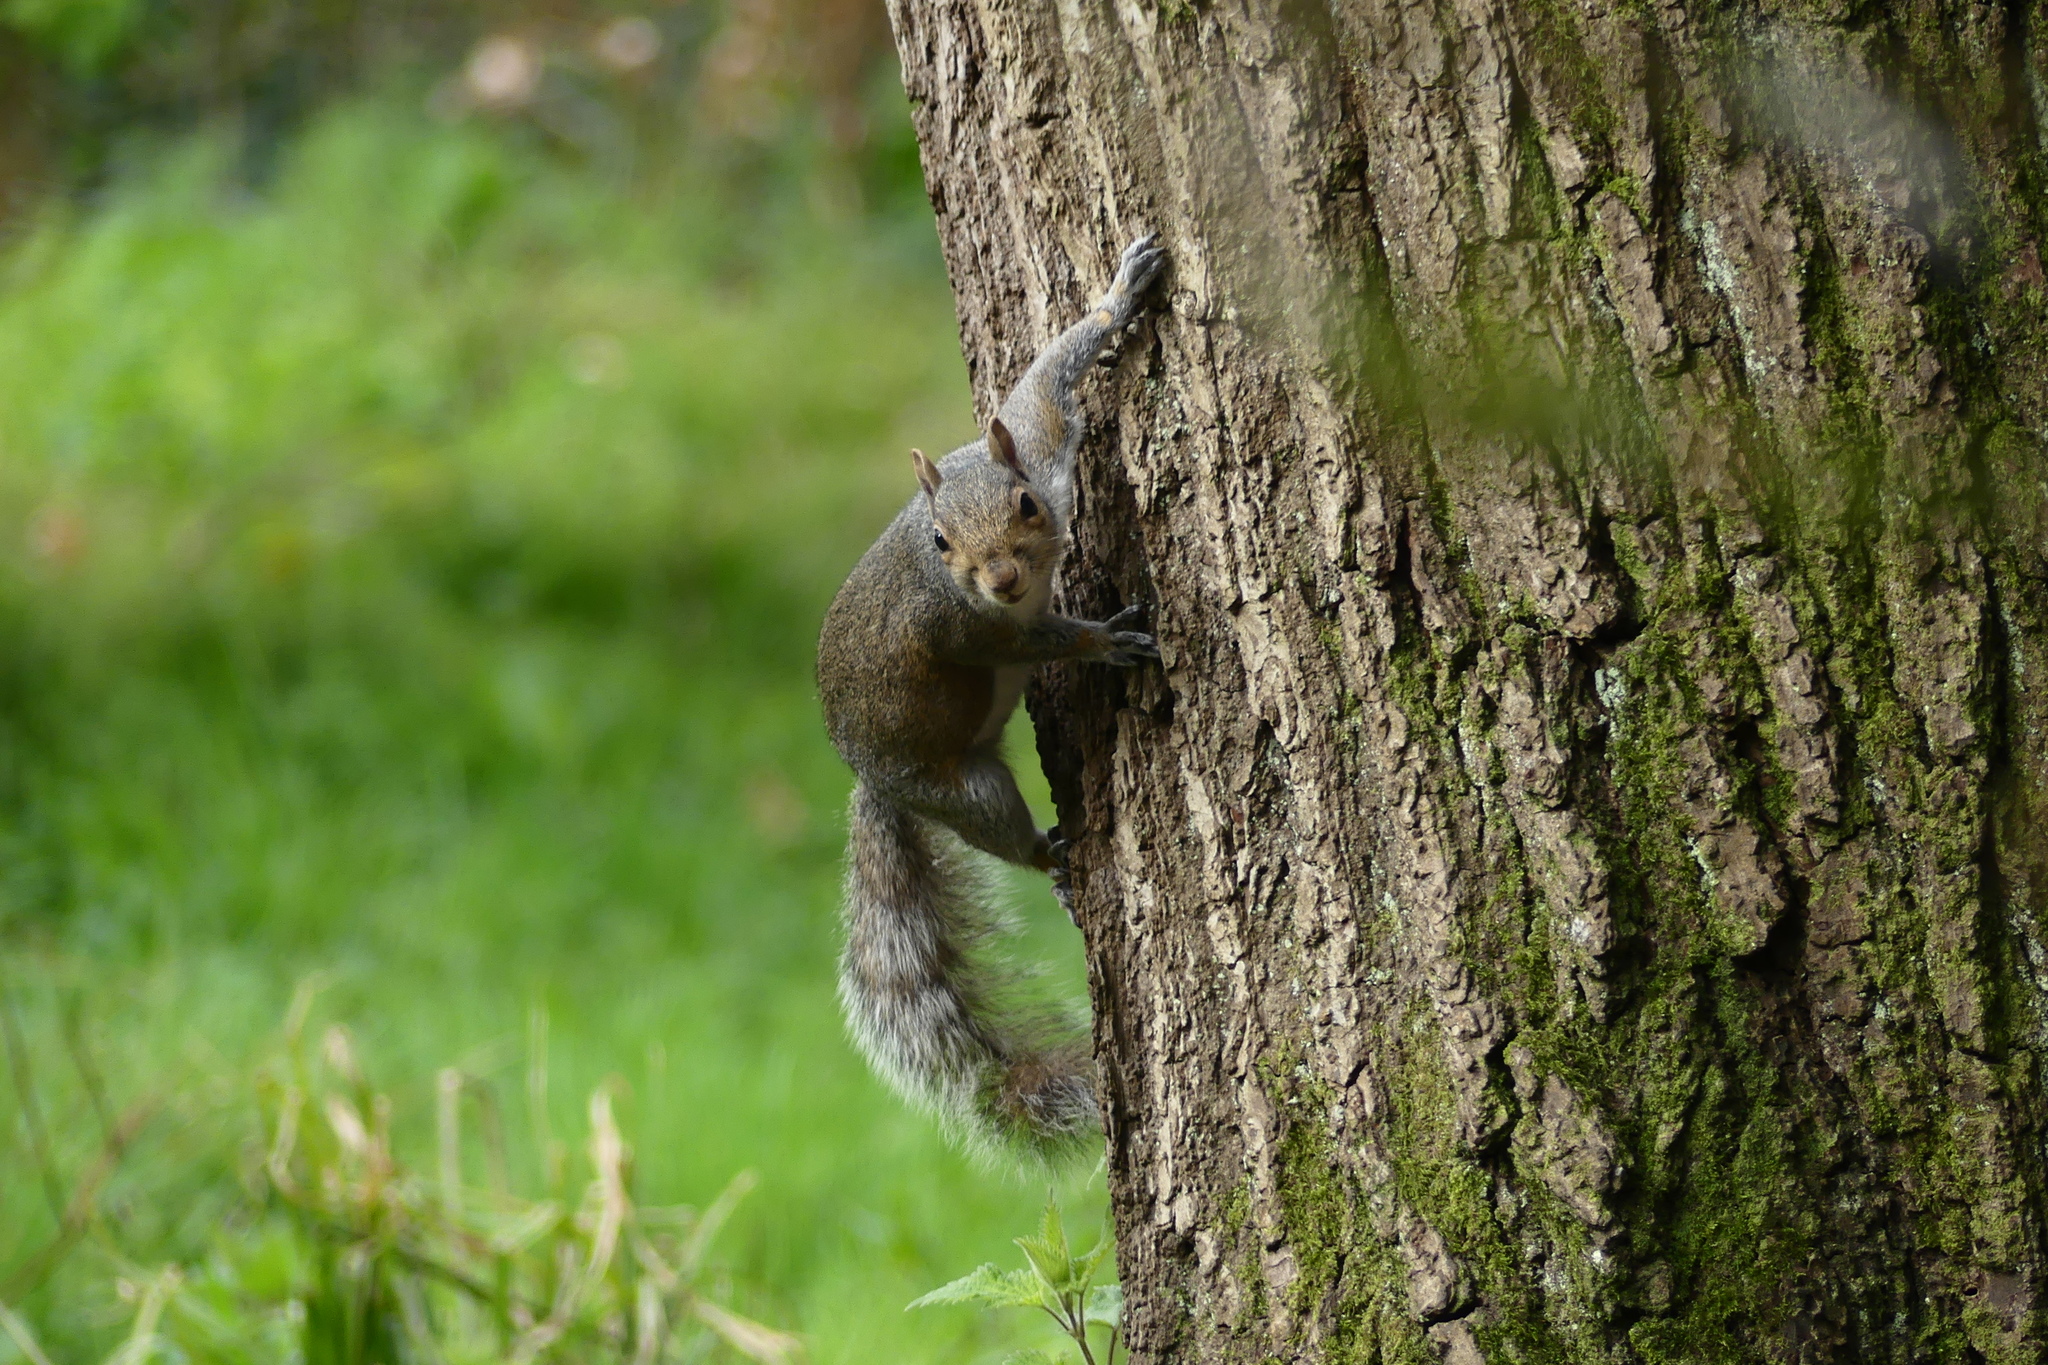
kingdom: Animalia
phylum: Chordata
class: Mammalia
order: Rodentia
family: Sciuridae
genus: Sciurus
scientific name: Sciurus carolinensis
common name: Eastern gray squirrel
